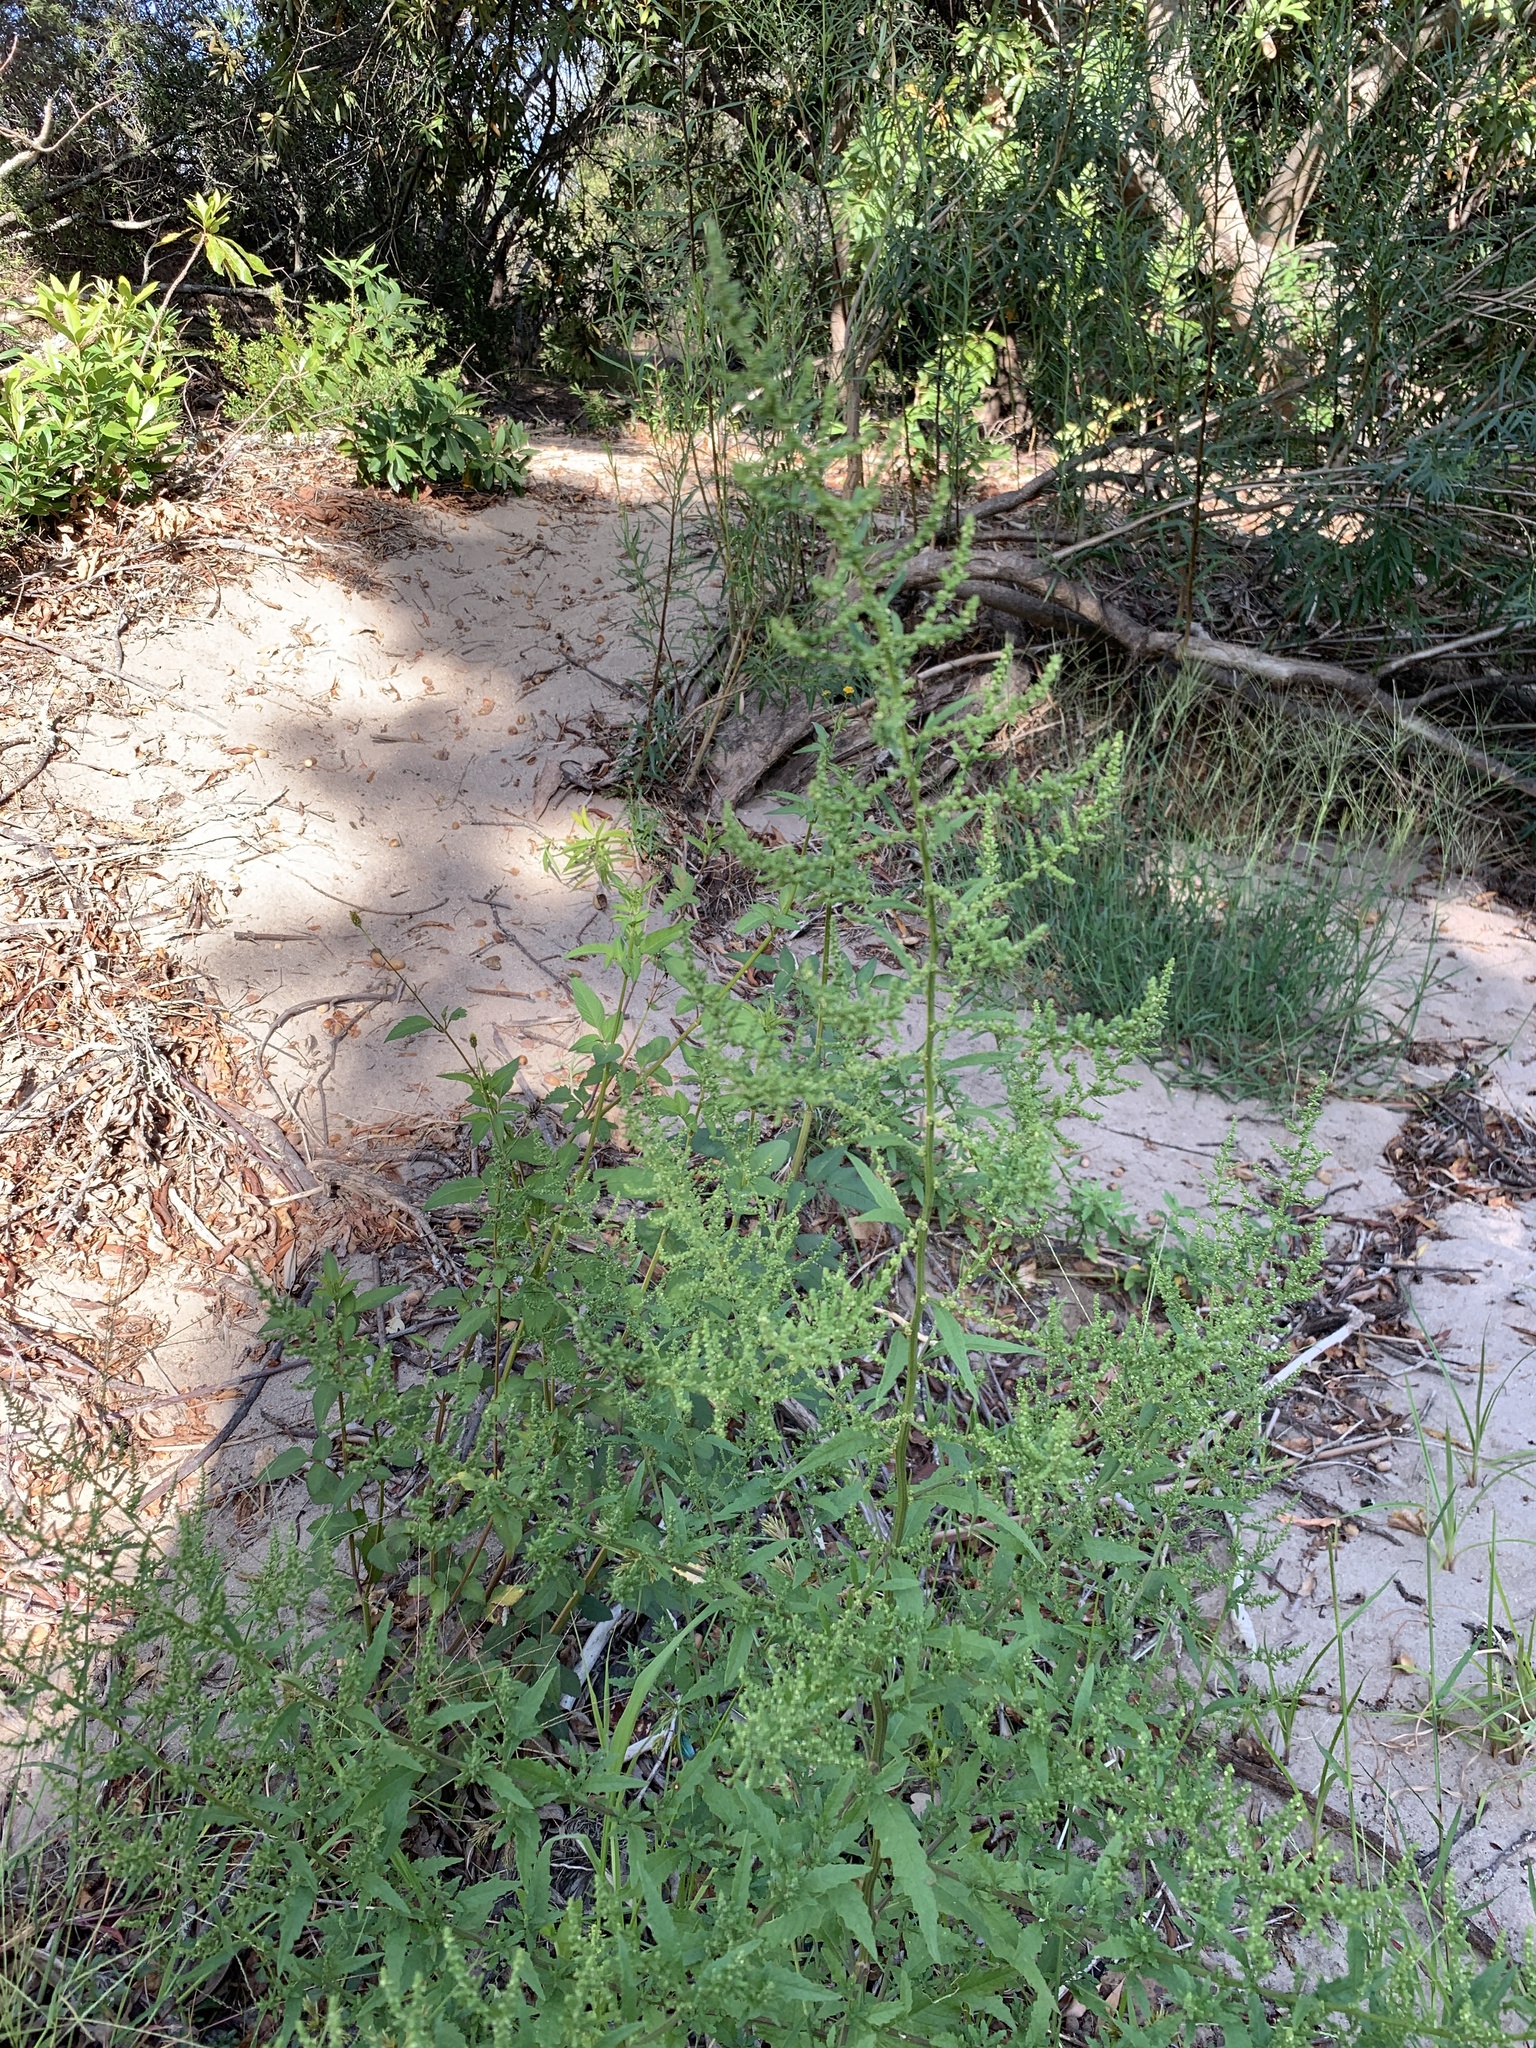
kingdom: Plantae
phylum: Tracheophyta
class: Magnoliopsida
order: Caryophyllales
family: Amaranthaceae
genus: Dysphania
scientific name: Dysphania ambrosioides
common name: Wormseed
